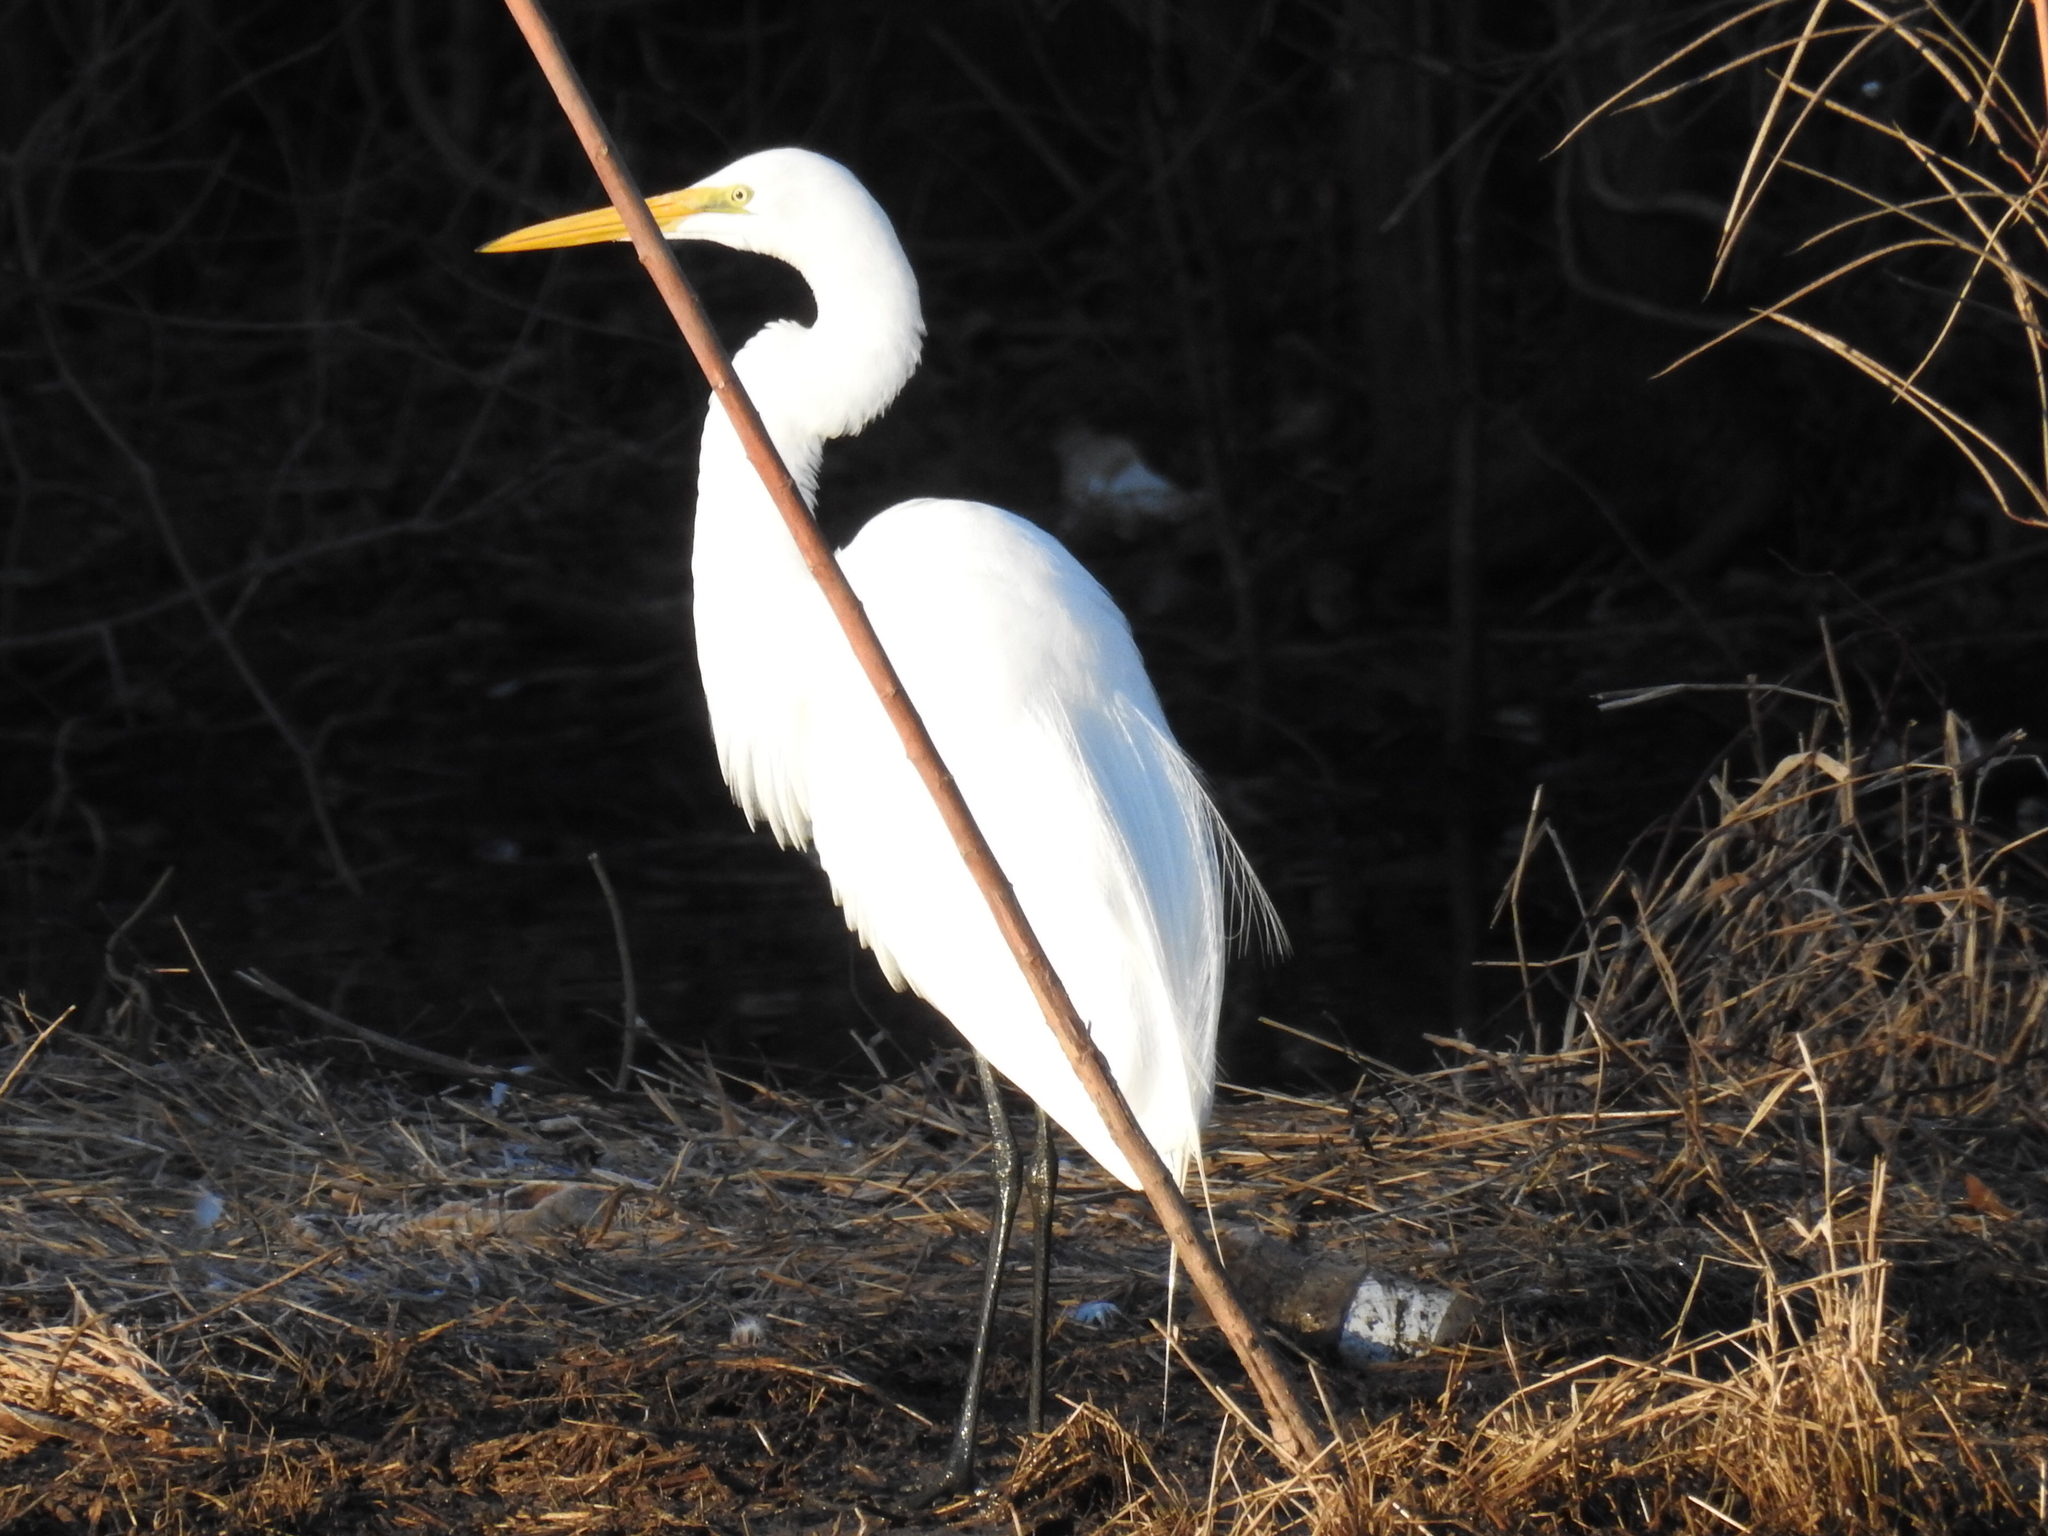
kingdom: Animalia
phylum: Chordata
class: Aves
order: Pelecaniformes
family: Ardeidae
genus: Ardea
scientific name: Ardea alba
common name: Great egret
